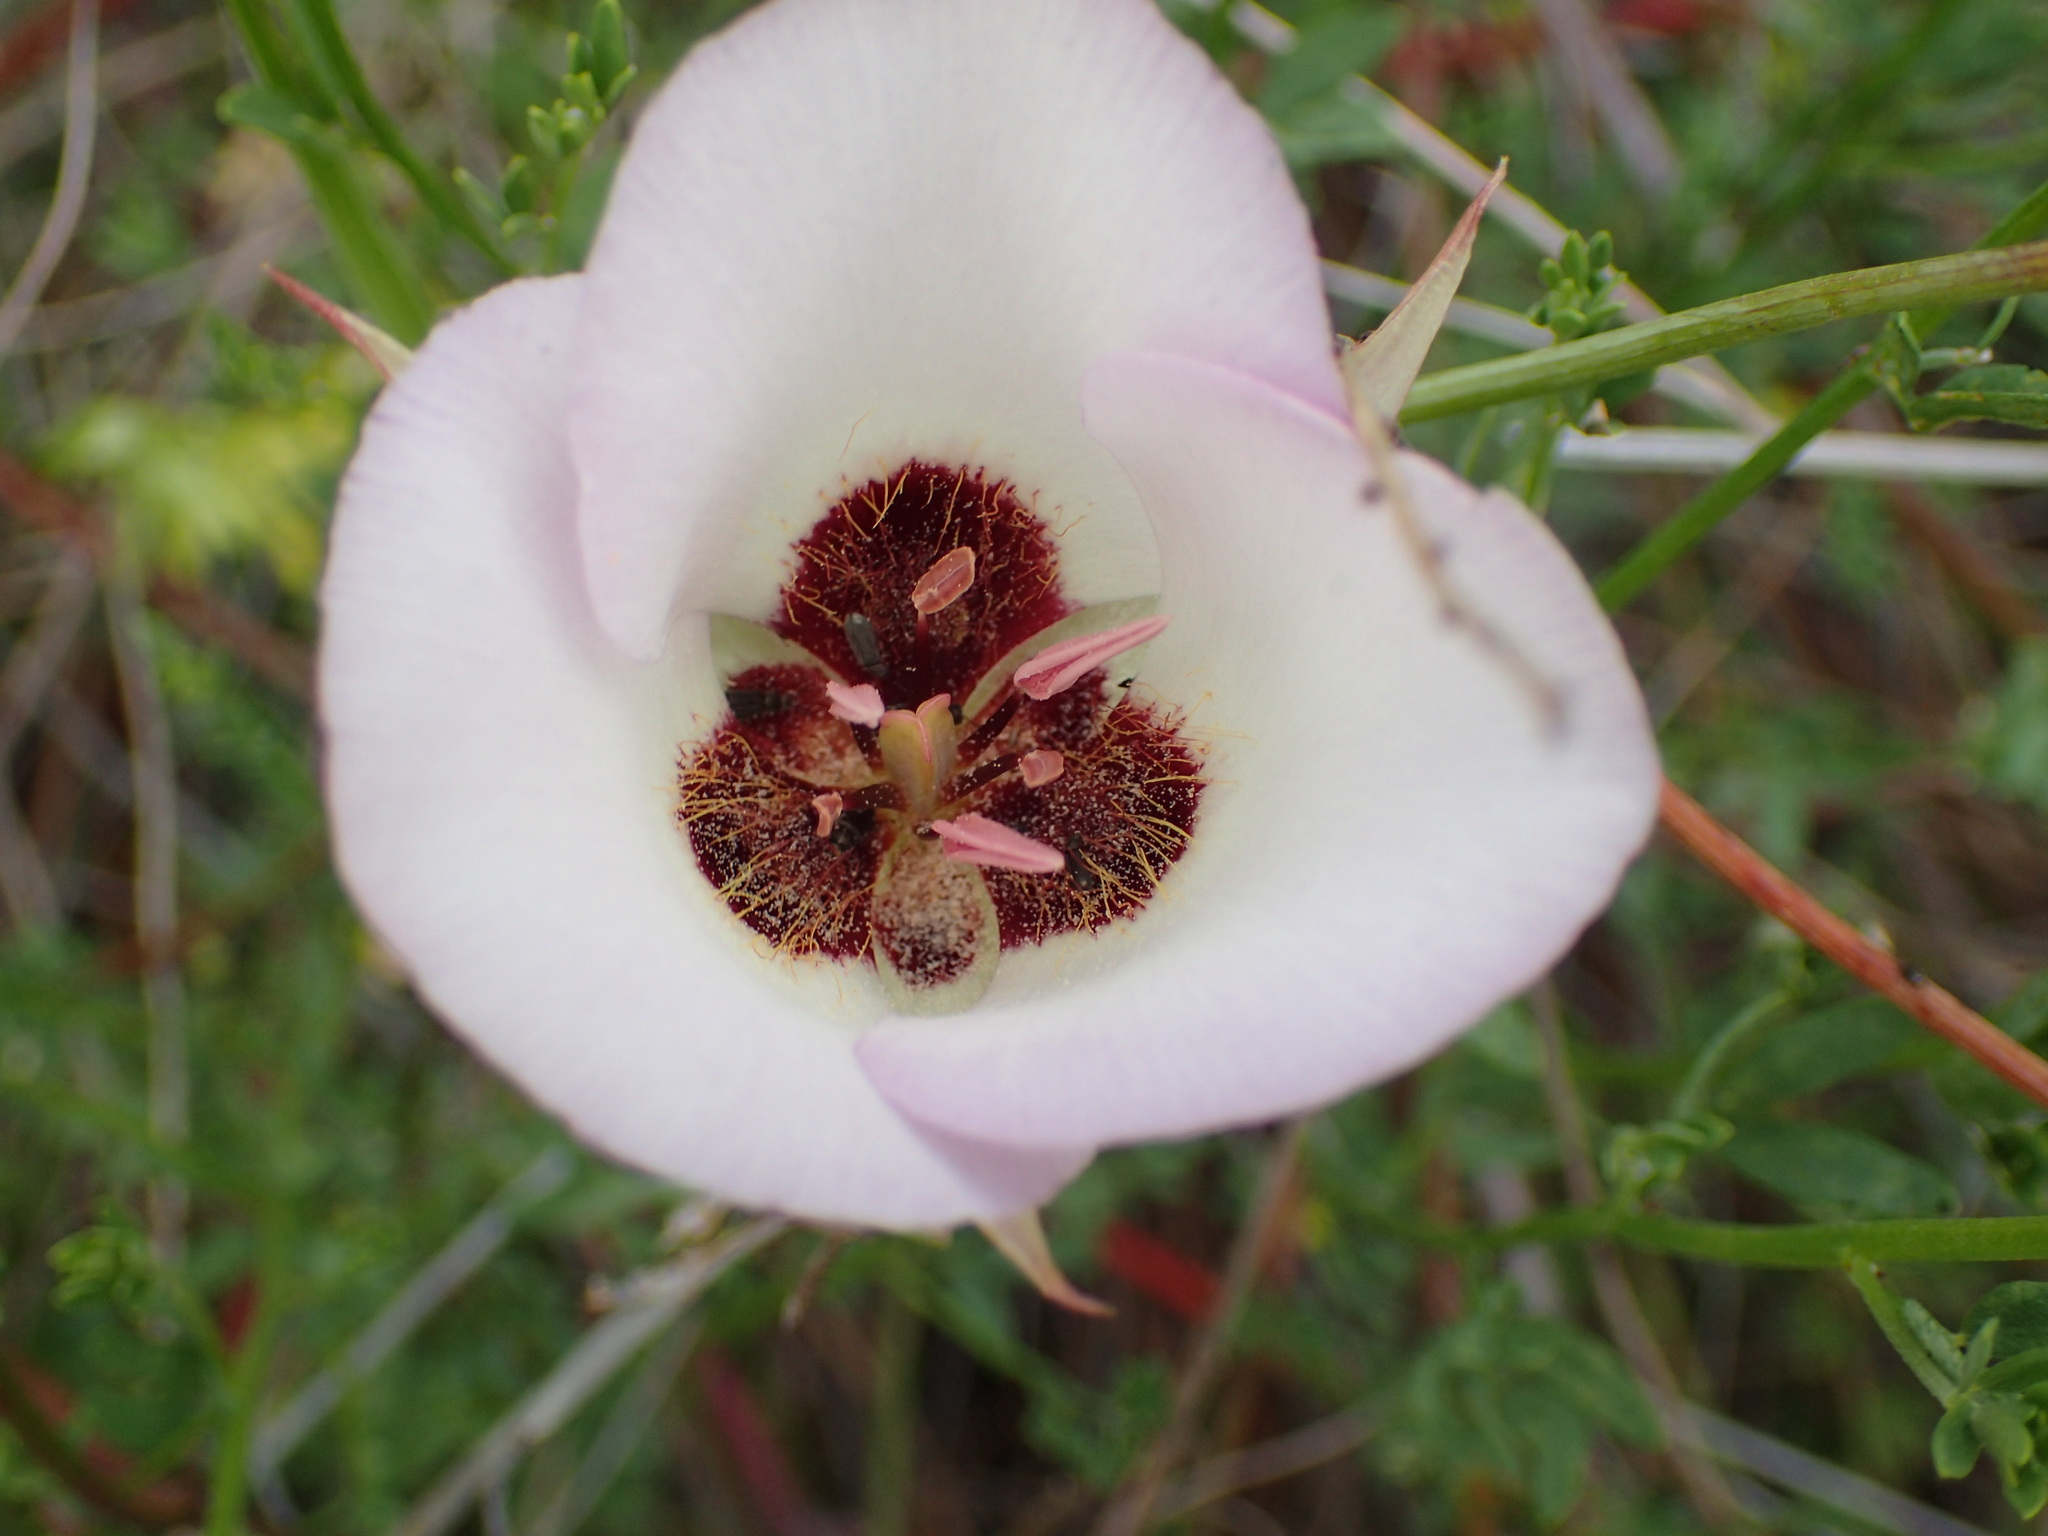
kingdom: Plantae
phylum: Tracheophyta
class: Liliopsida
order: Liliales
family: Liliaceae
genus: Calochortus
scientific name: Calochortus catalinae
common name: Catalina mariposa-lily
